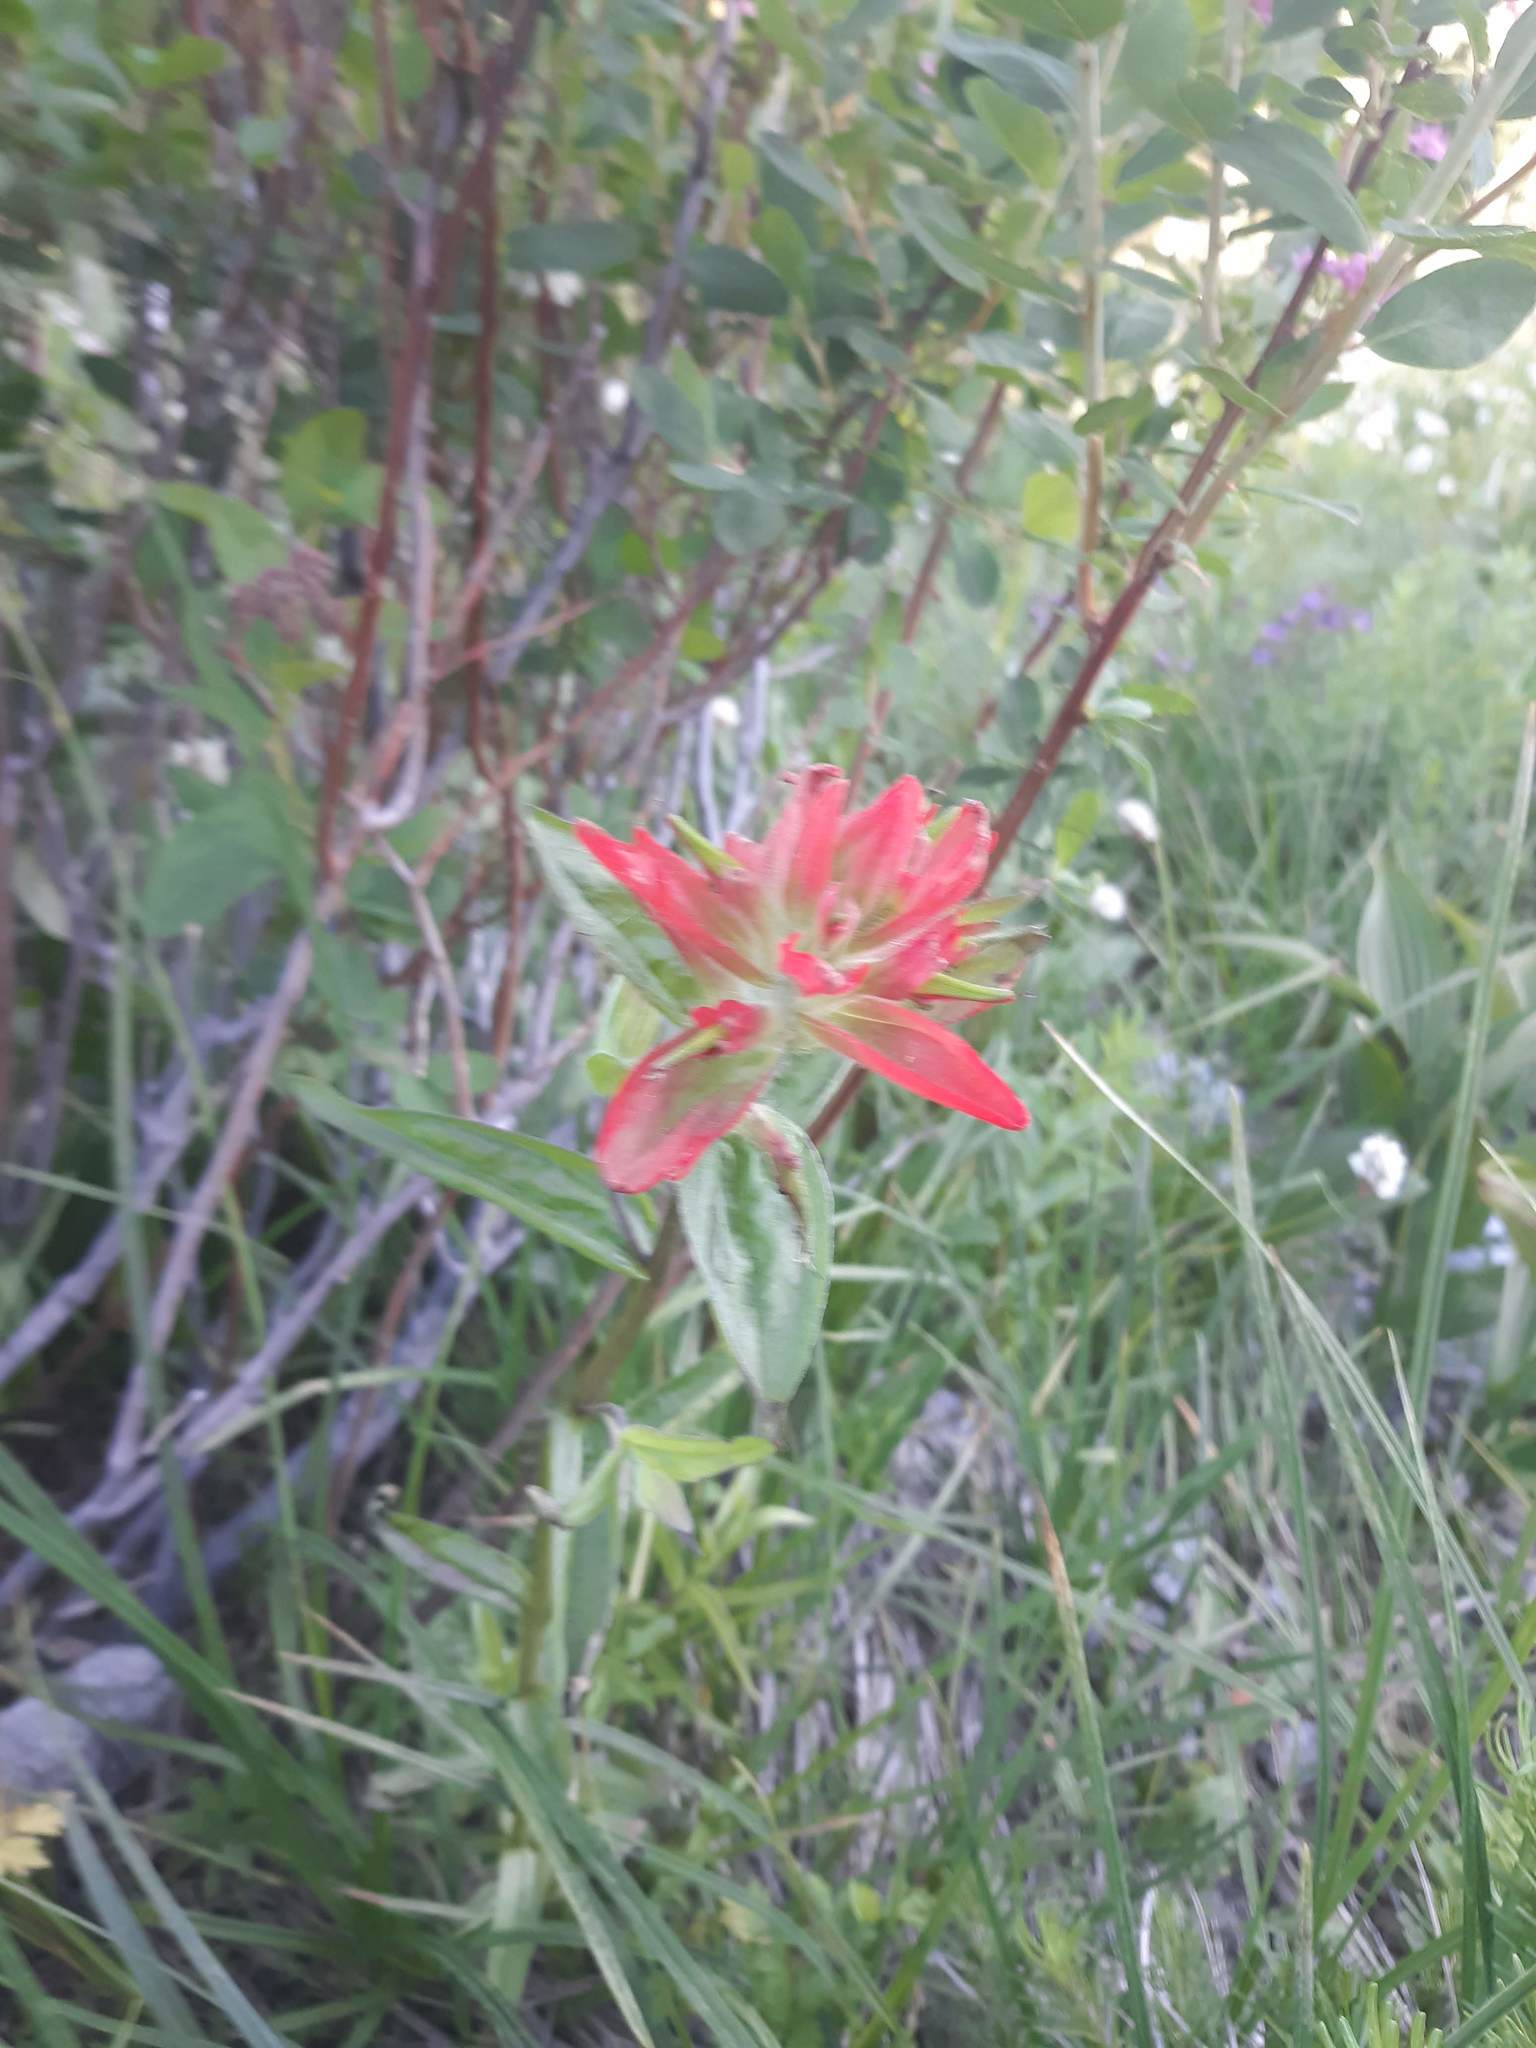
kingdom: Plantae
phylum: Tracheophyta
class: Magnoliopsida
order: Lamiales
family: Orobanchaceae
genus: Castilleja
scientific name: Castilleja miniata
